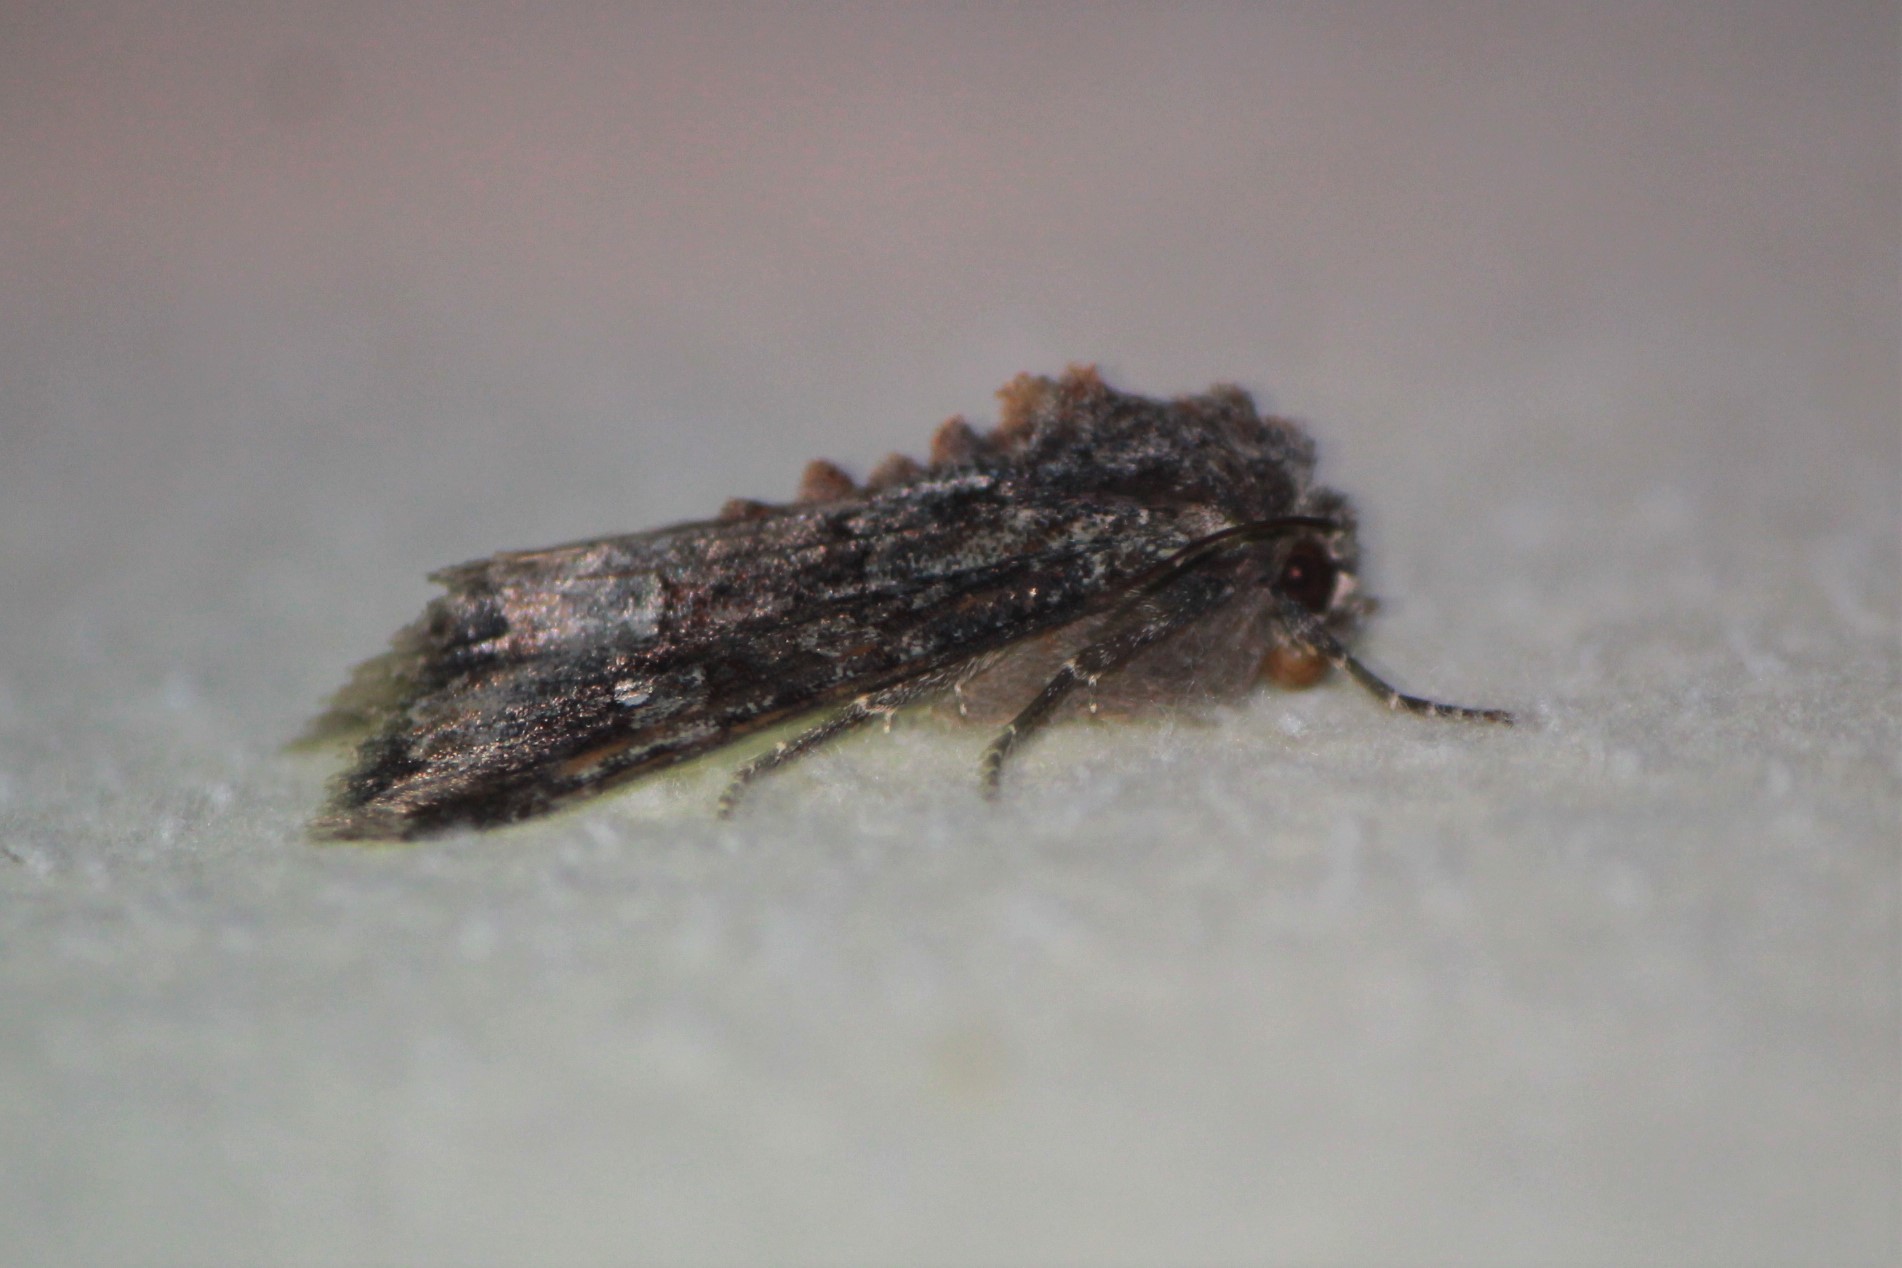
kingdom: Animalia
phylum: Arthropoda
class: Insecta
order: Lepidoptera
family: Noctuidae
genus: Apamea
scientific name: Apamea amputatrix
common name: Yellow-headed cutworm moth
